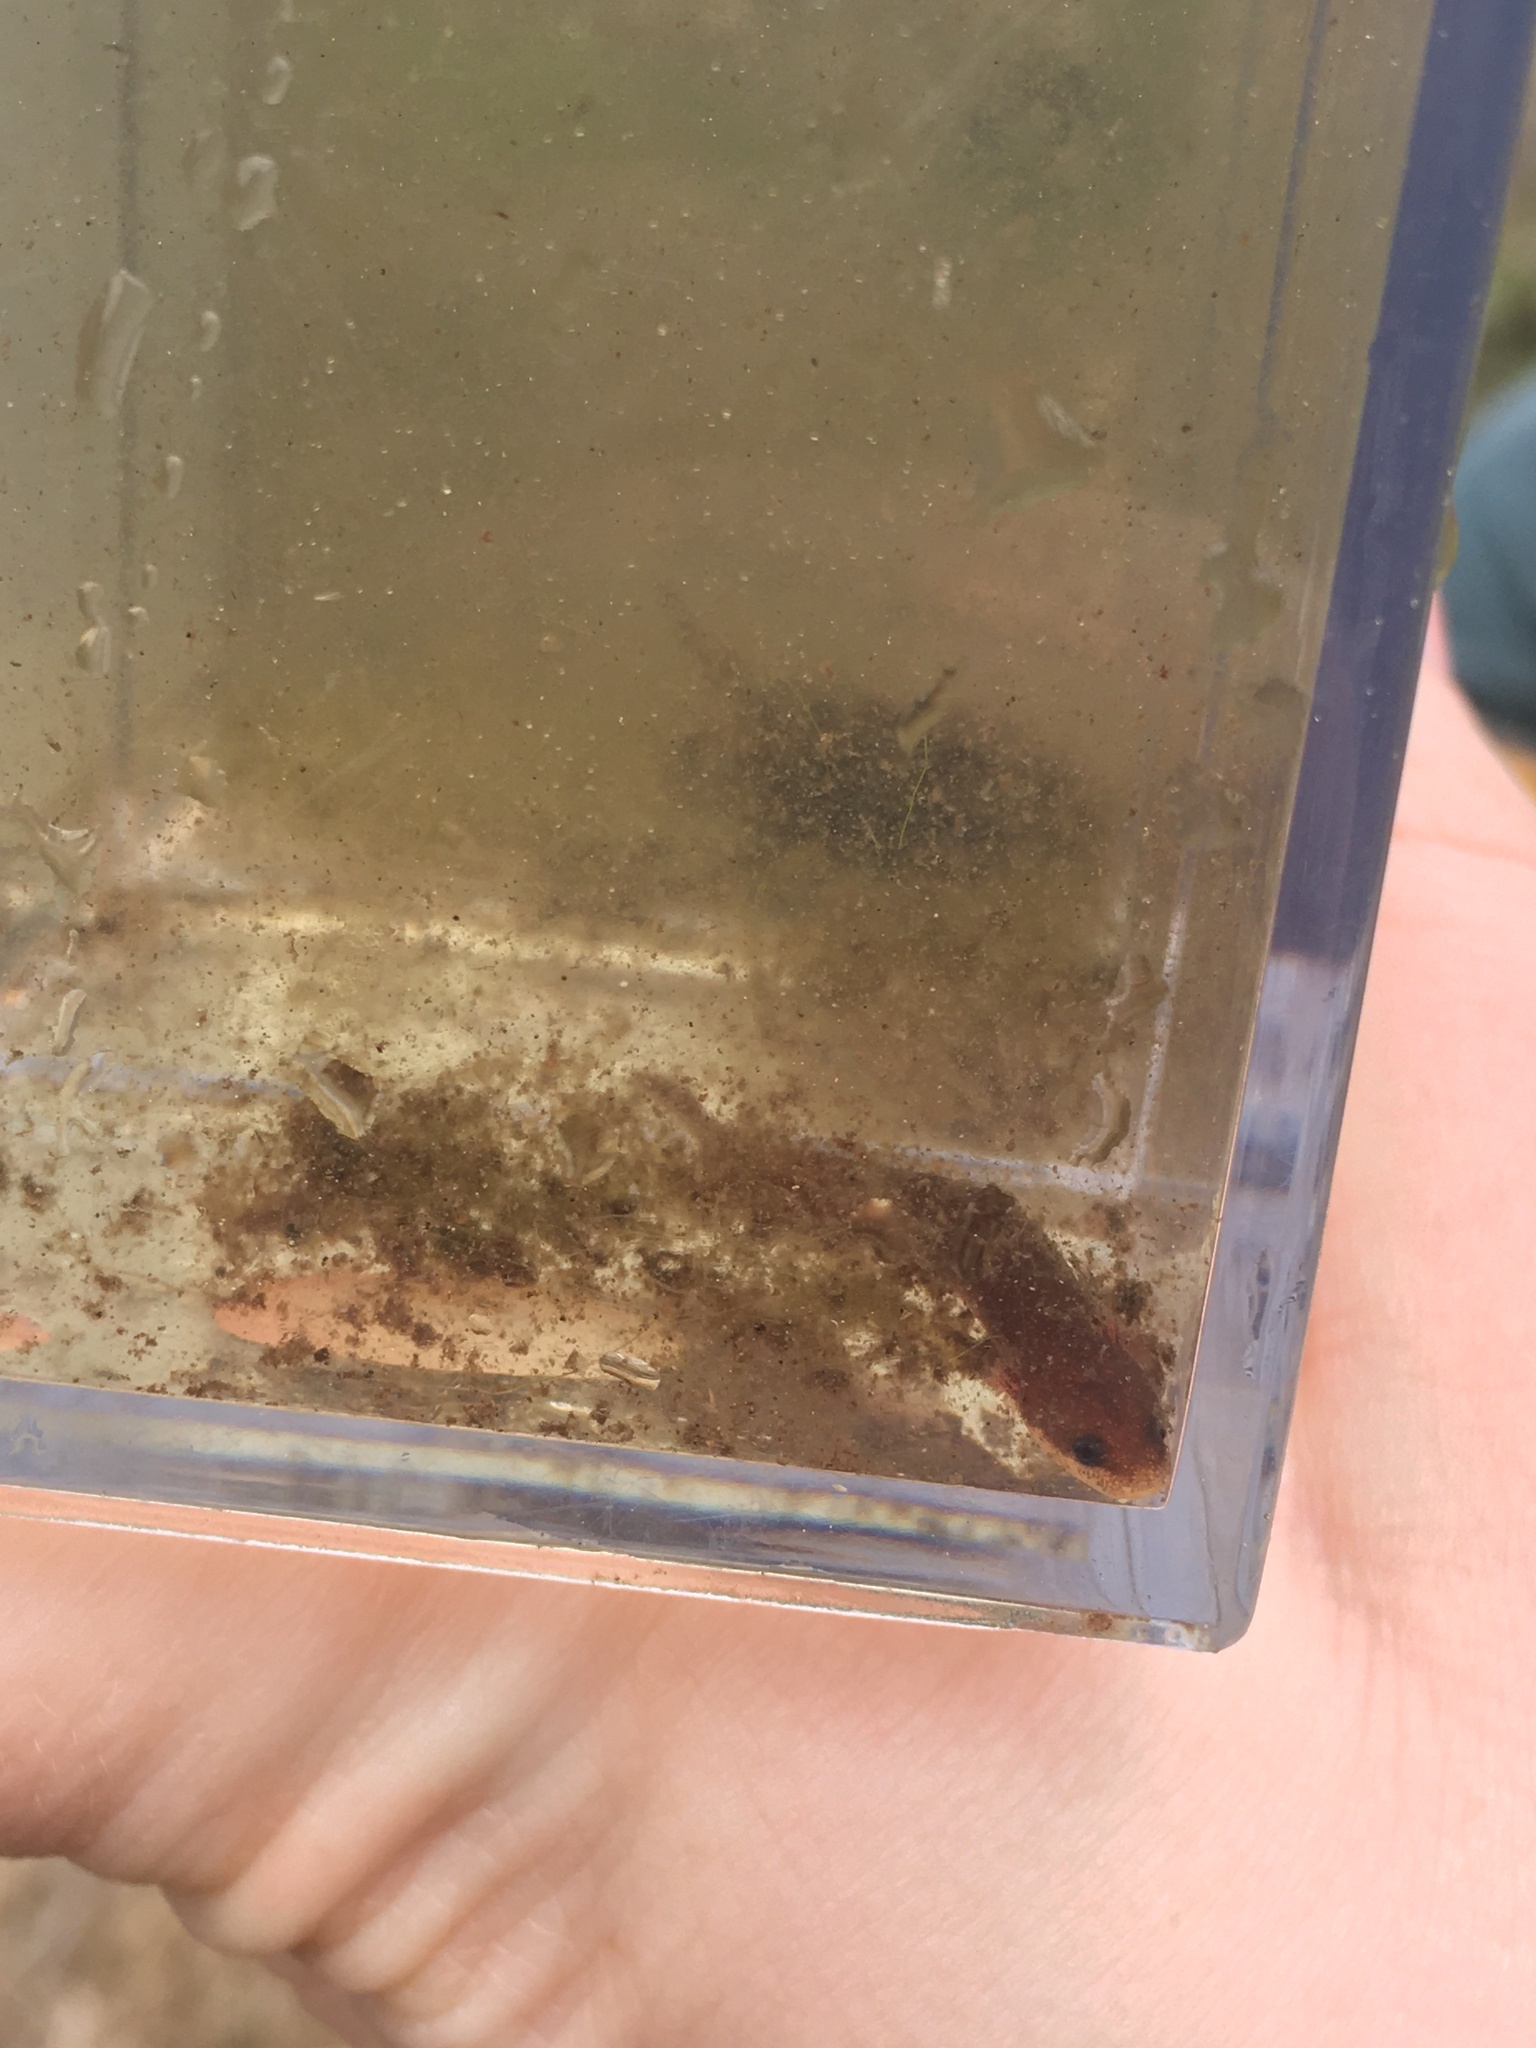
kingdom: Animalia
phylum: Chordata
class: Amphibia
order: Caudata
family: Proteidae
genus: Necturus
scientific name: Necturus punctatus
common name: Dwarf waterdog
